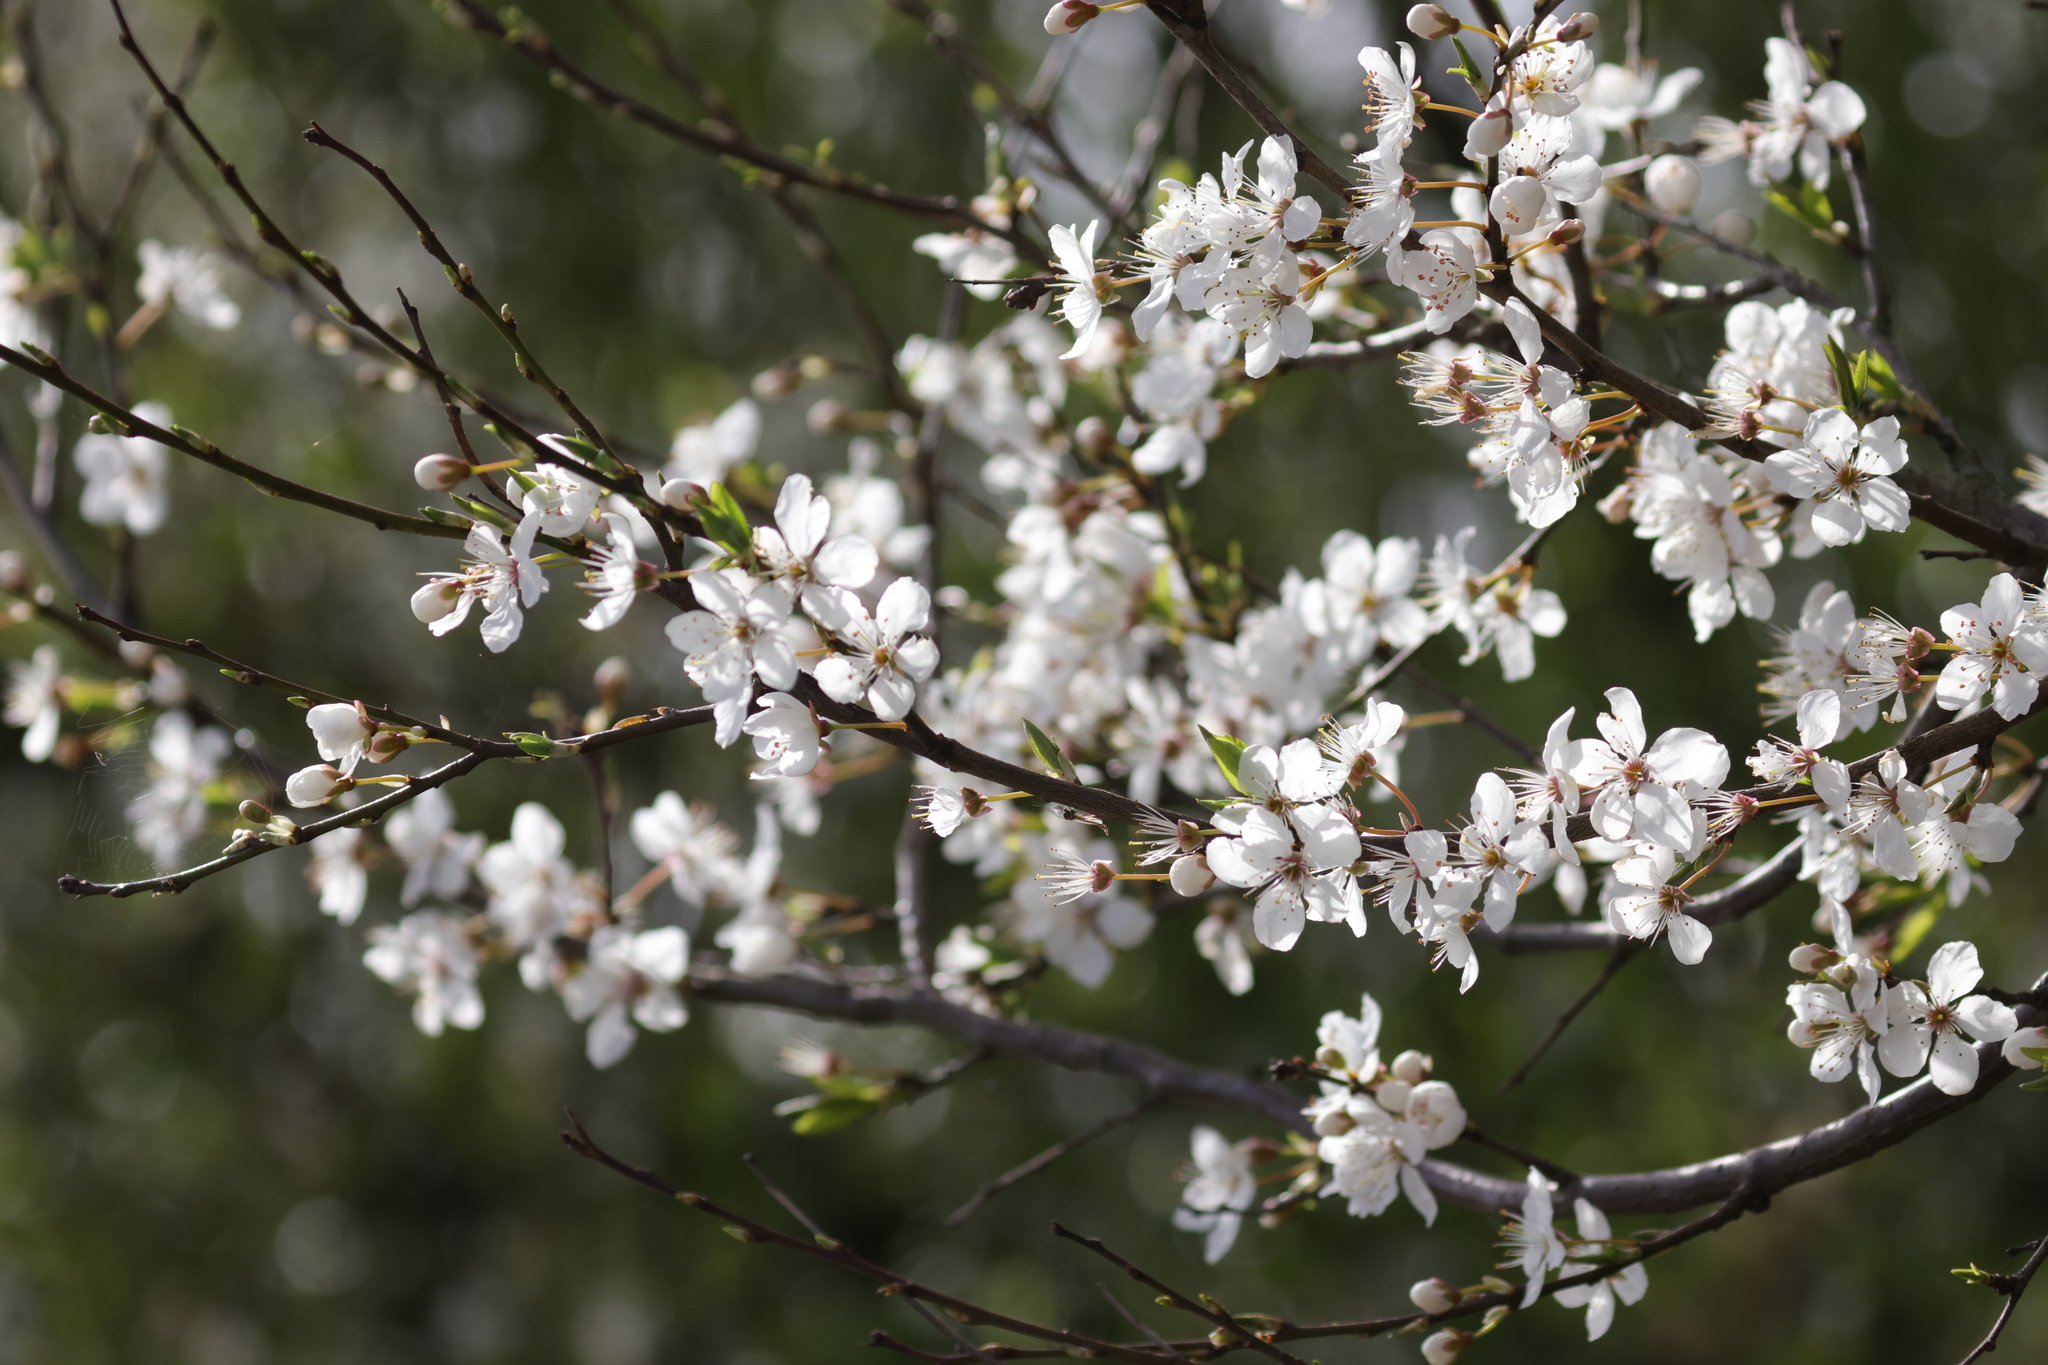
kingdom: Plantae
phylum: Tracheophyta
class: Magnoliopsida
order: Rosales
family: Rosaceae
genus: Prunus
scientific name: Prunus cerasifera
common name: Cherry plum
